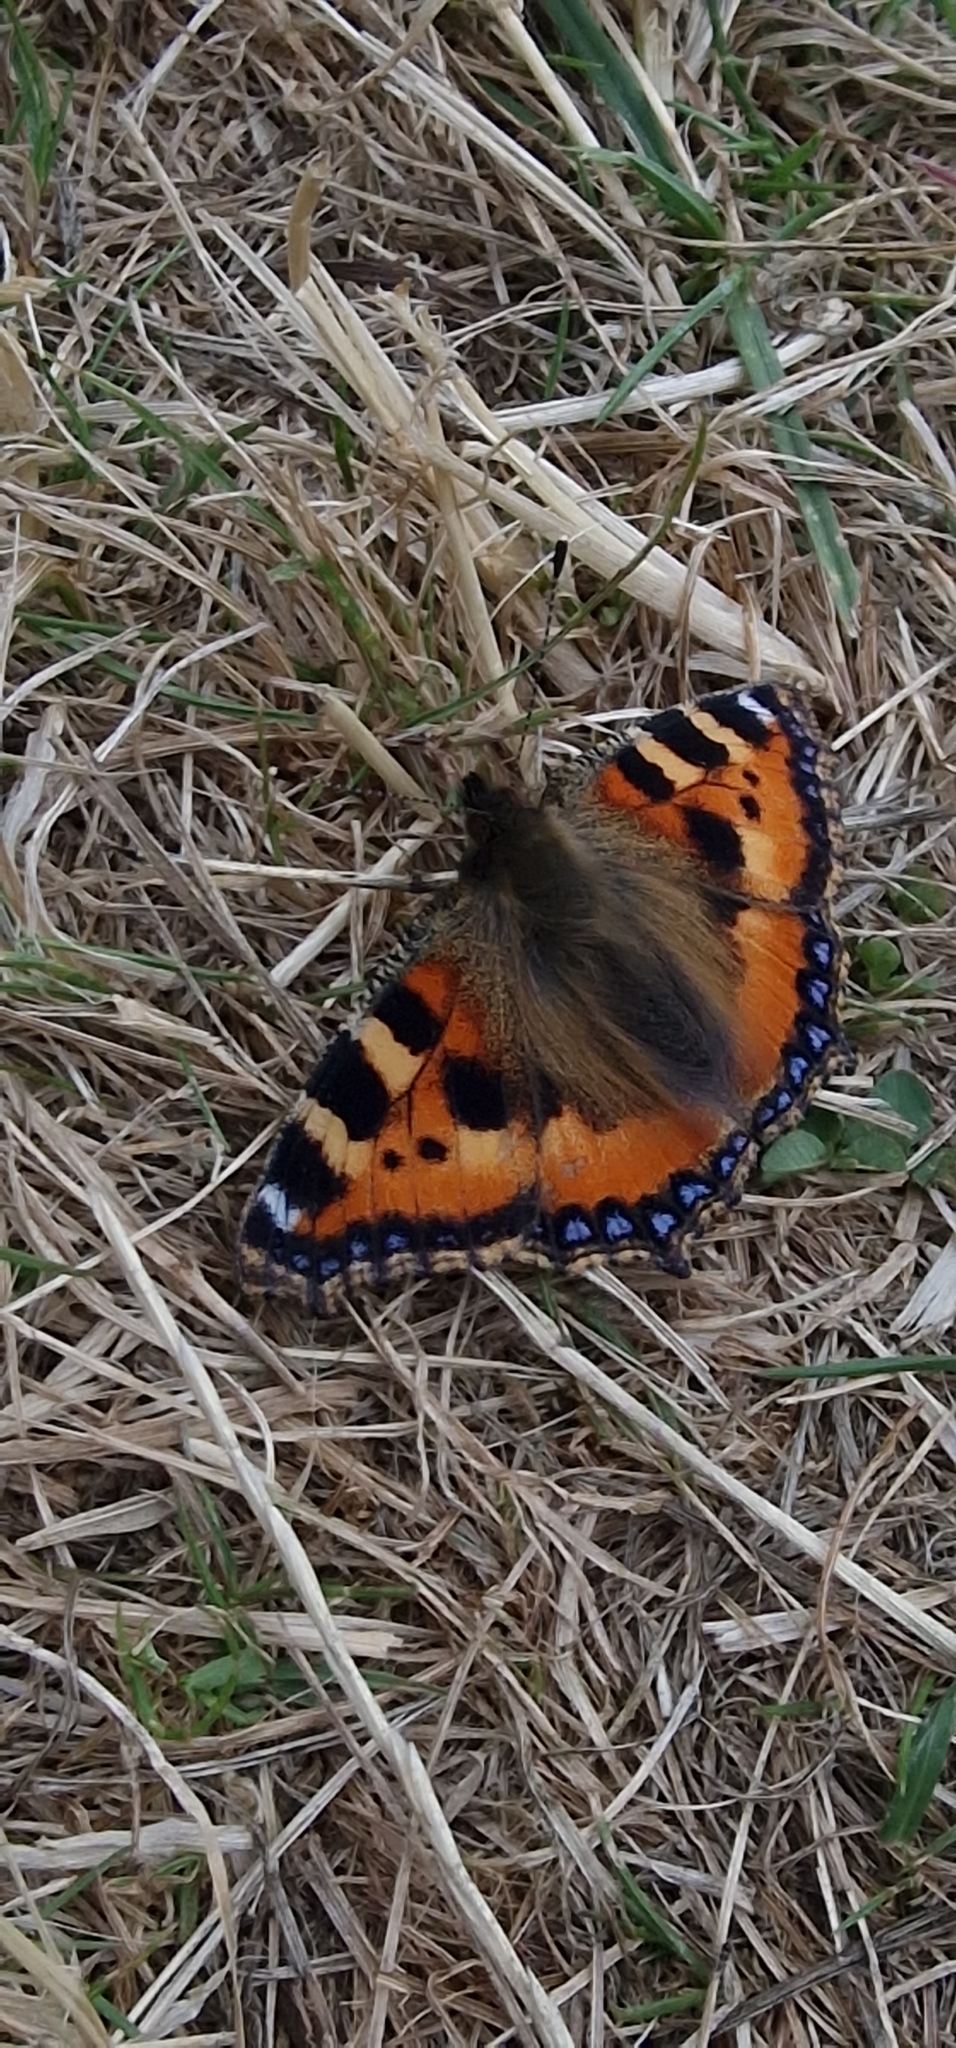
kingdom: Animalia
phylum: Arthropoda
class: Insecta
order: Lepidoptera
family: Nymphalidae
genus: Aglais
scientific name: Aglais urticae
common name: Small tortoiseshell
